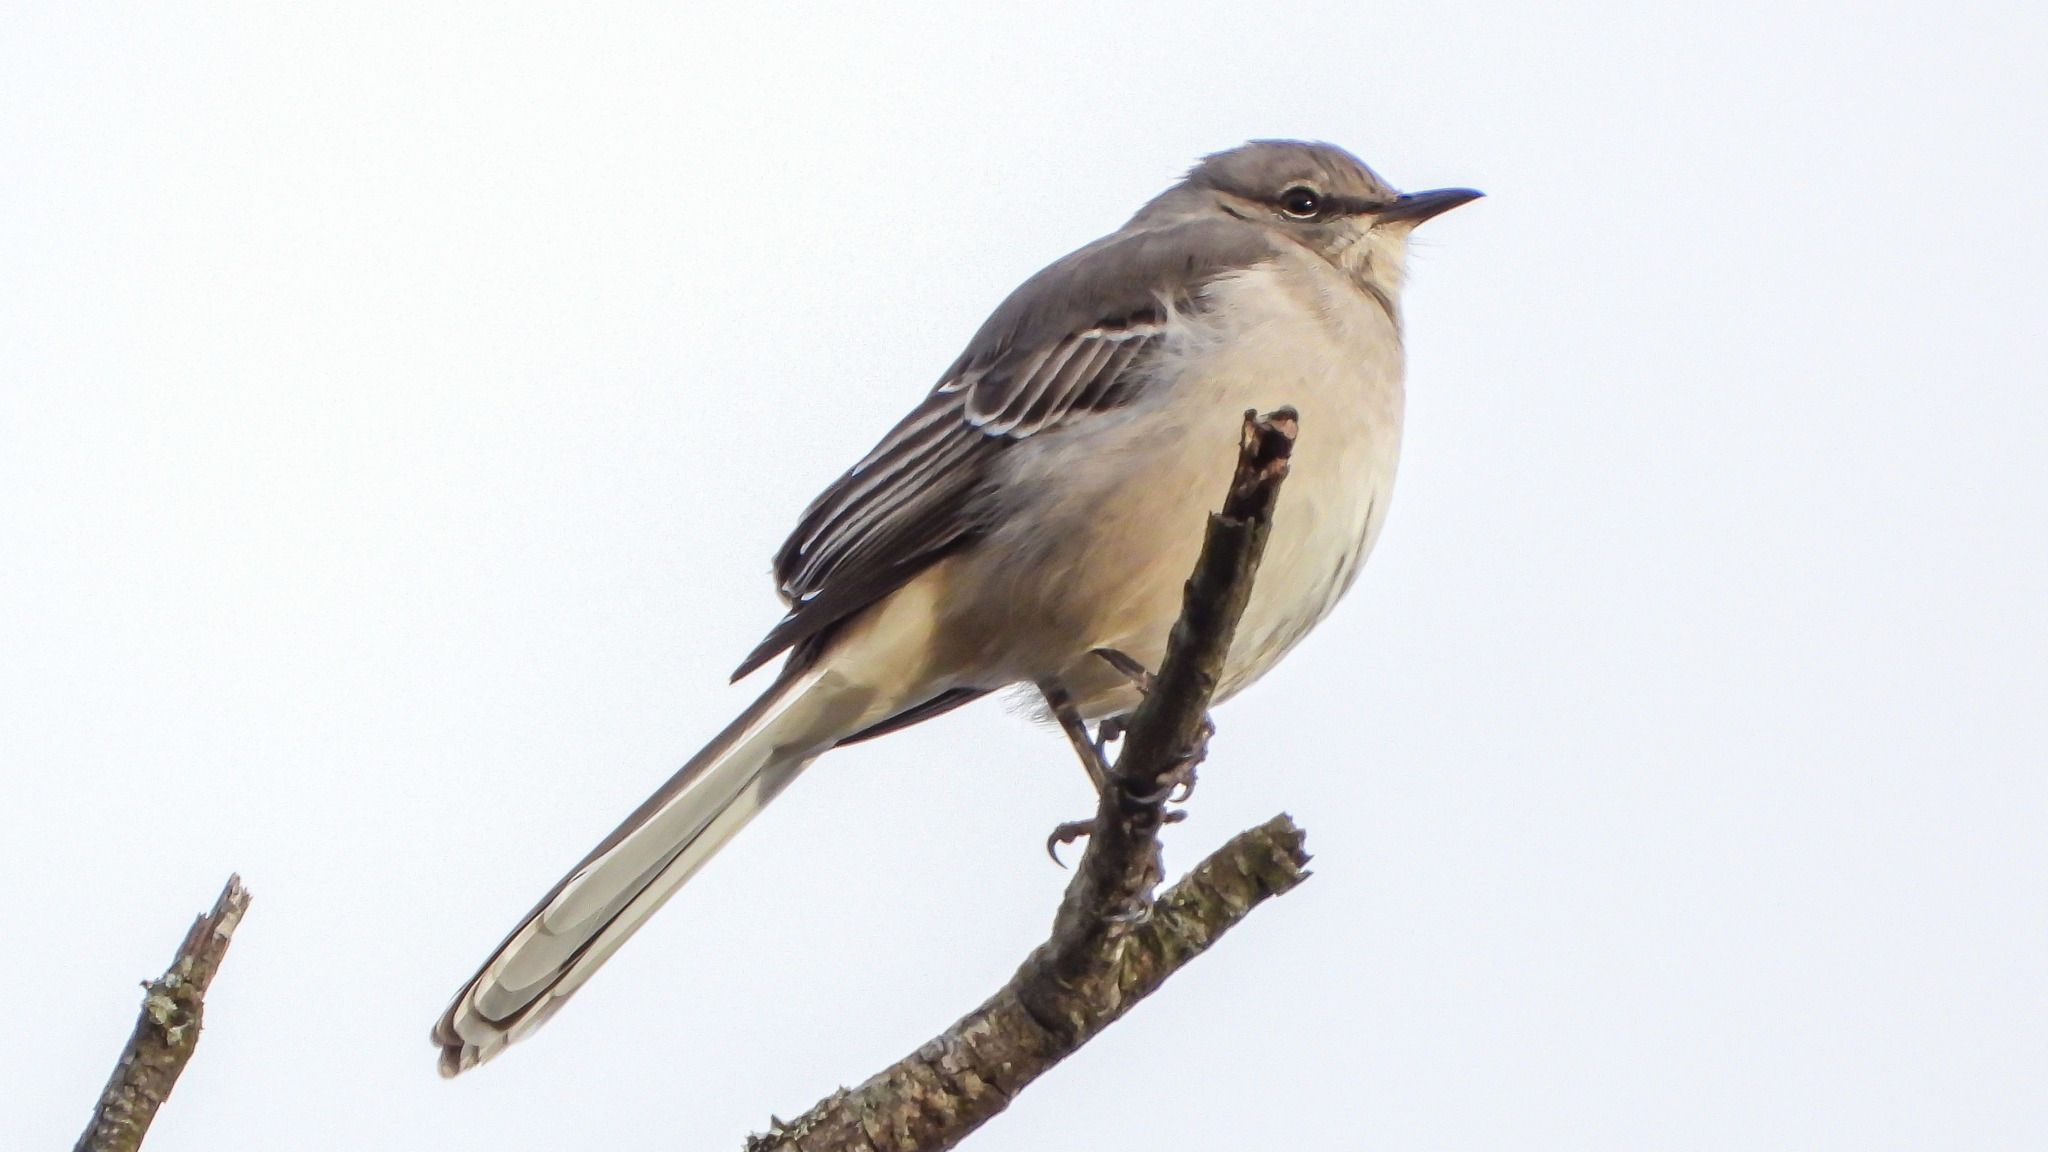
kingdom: Animalia
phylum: Chordata
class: Aves
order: Passeriformes
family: Mimidae
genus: Mimus
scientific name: Mimus polyglottos
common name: Northern mockingbird
